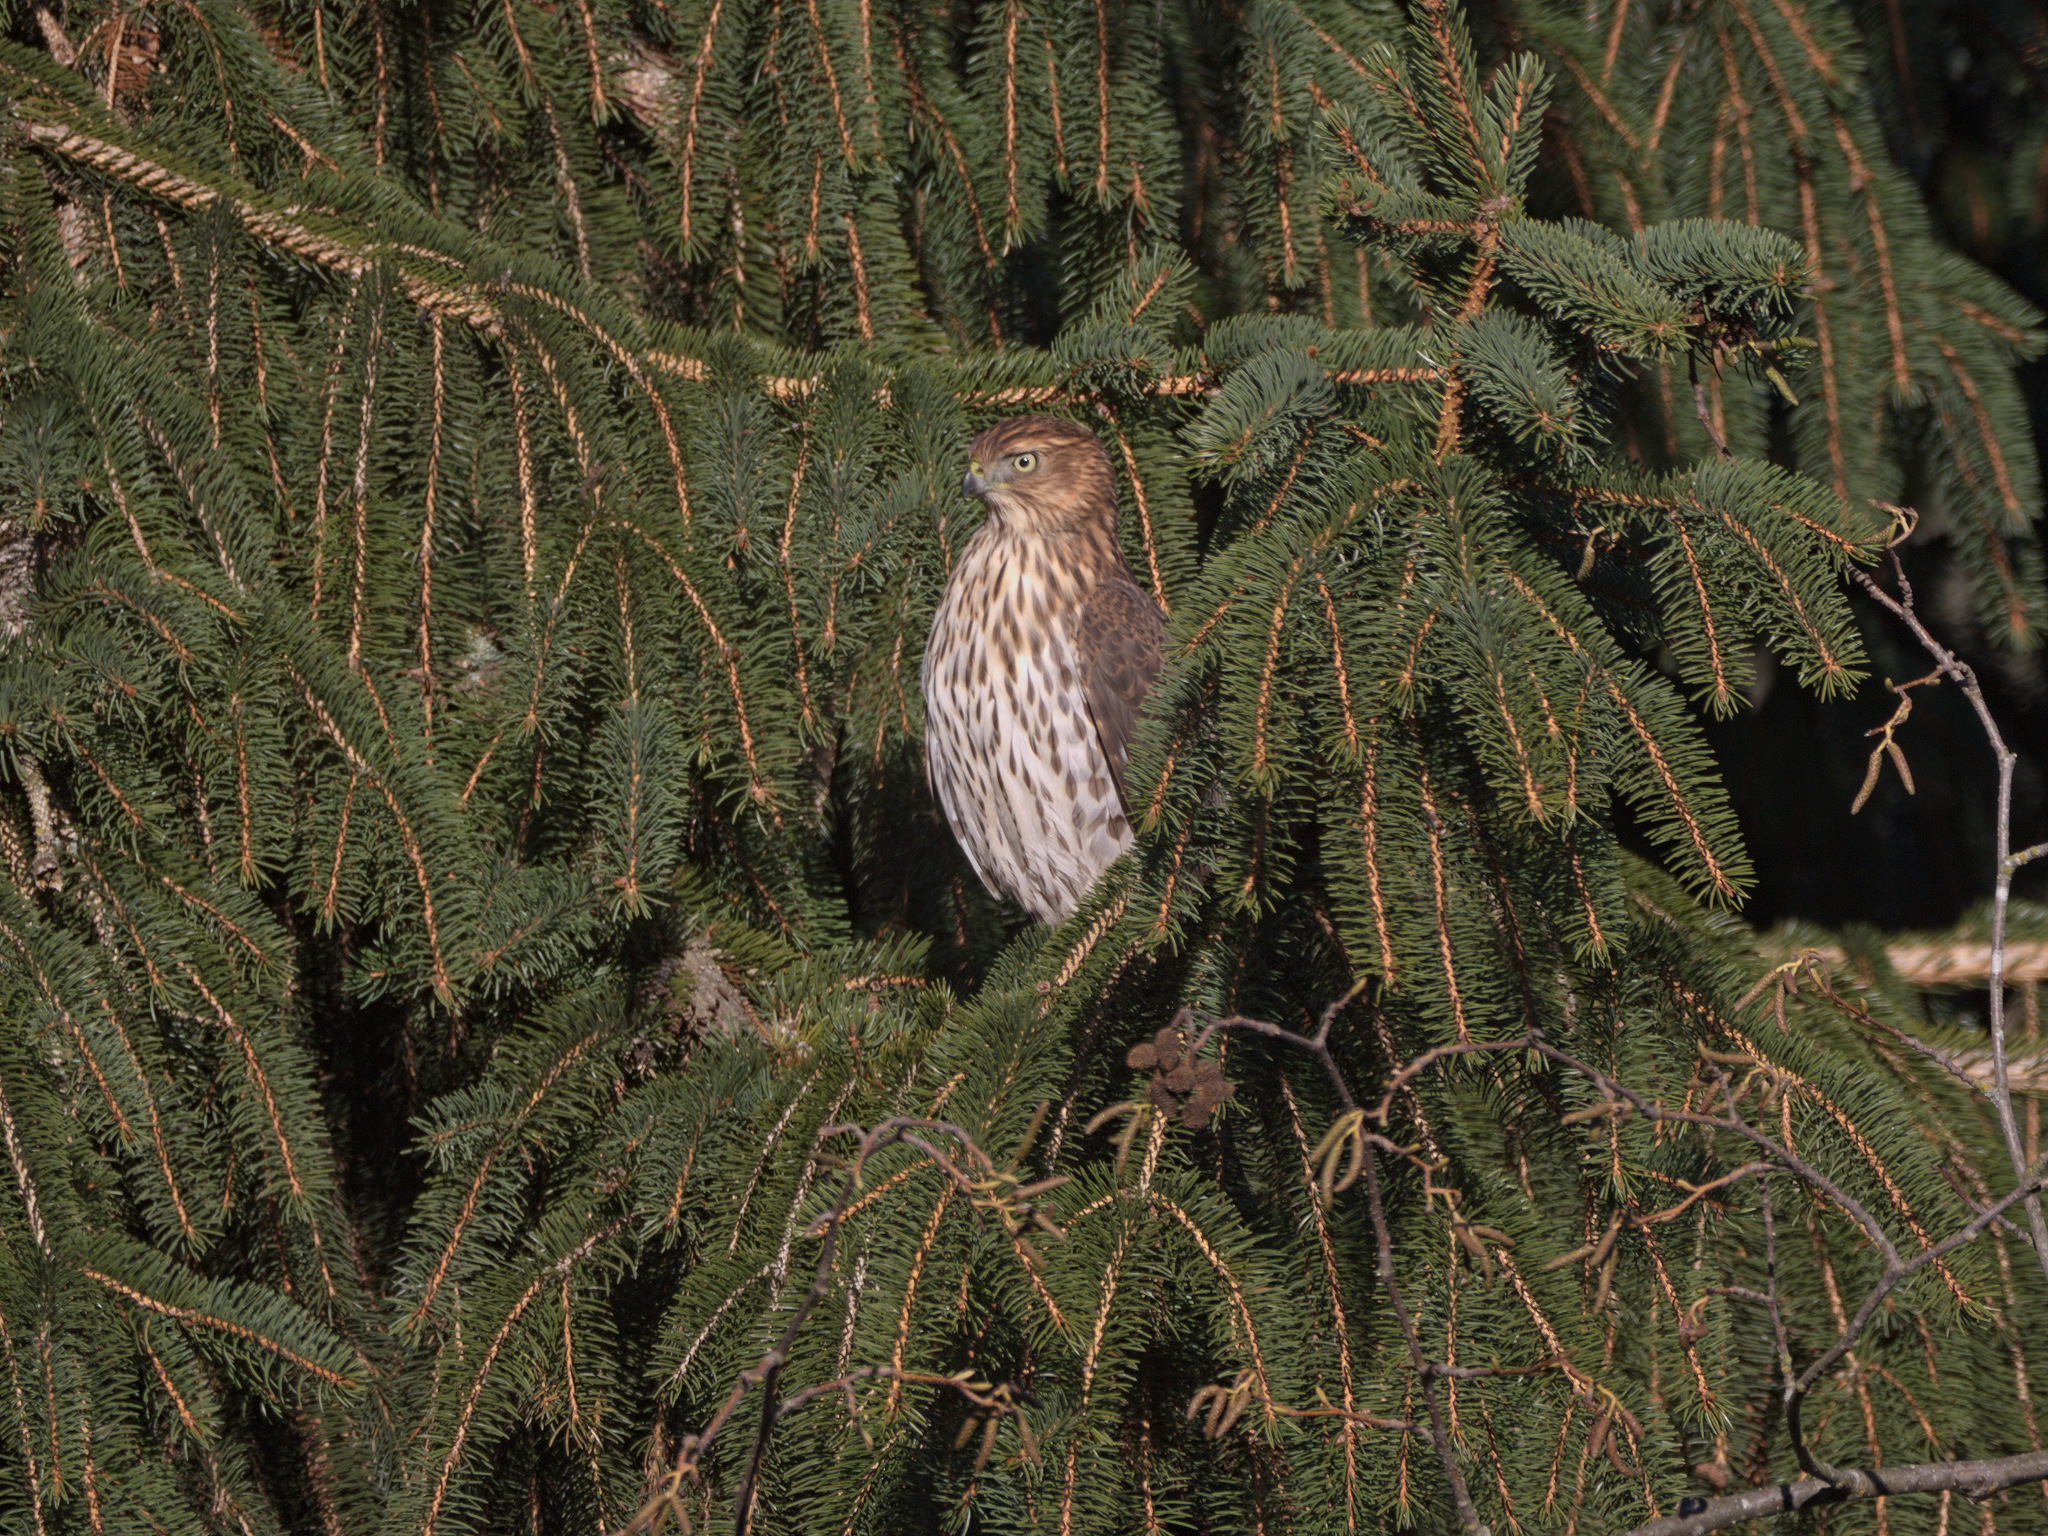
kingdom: Animalia
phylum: Chordata
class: Aves
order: Accipitriformes
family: Accipitridae
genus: Accipiter
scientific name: Accipiter cooperii
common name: Cooper's hawk
